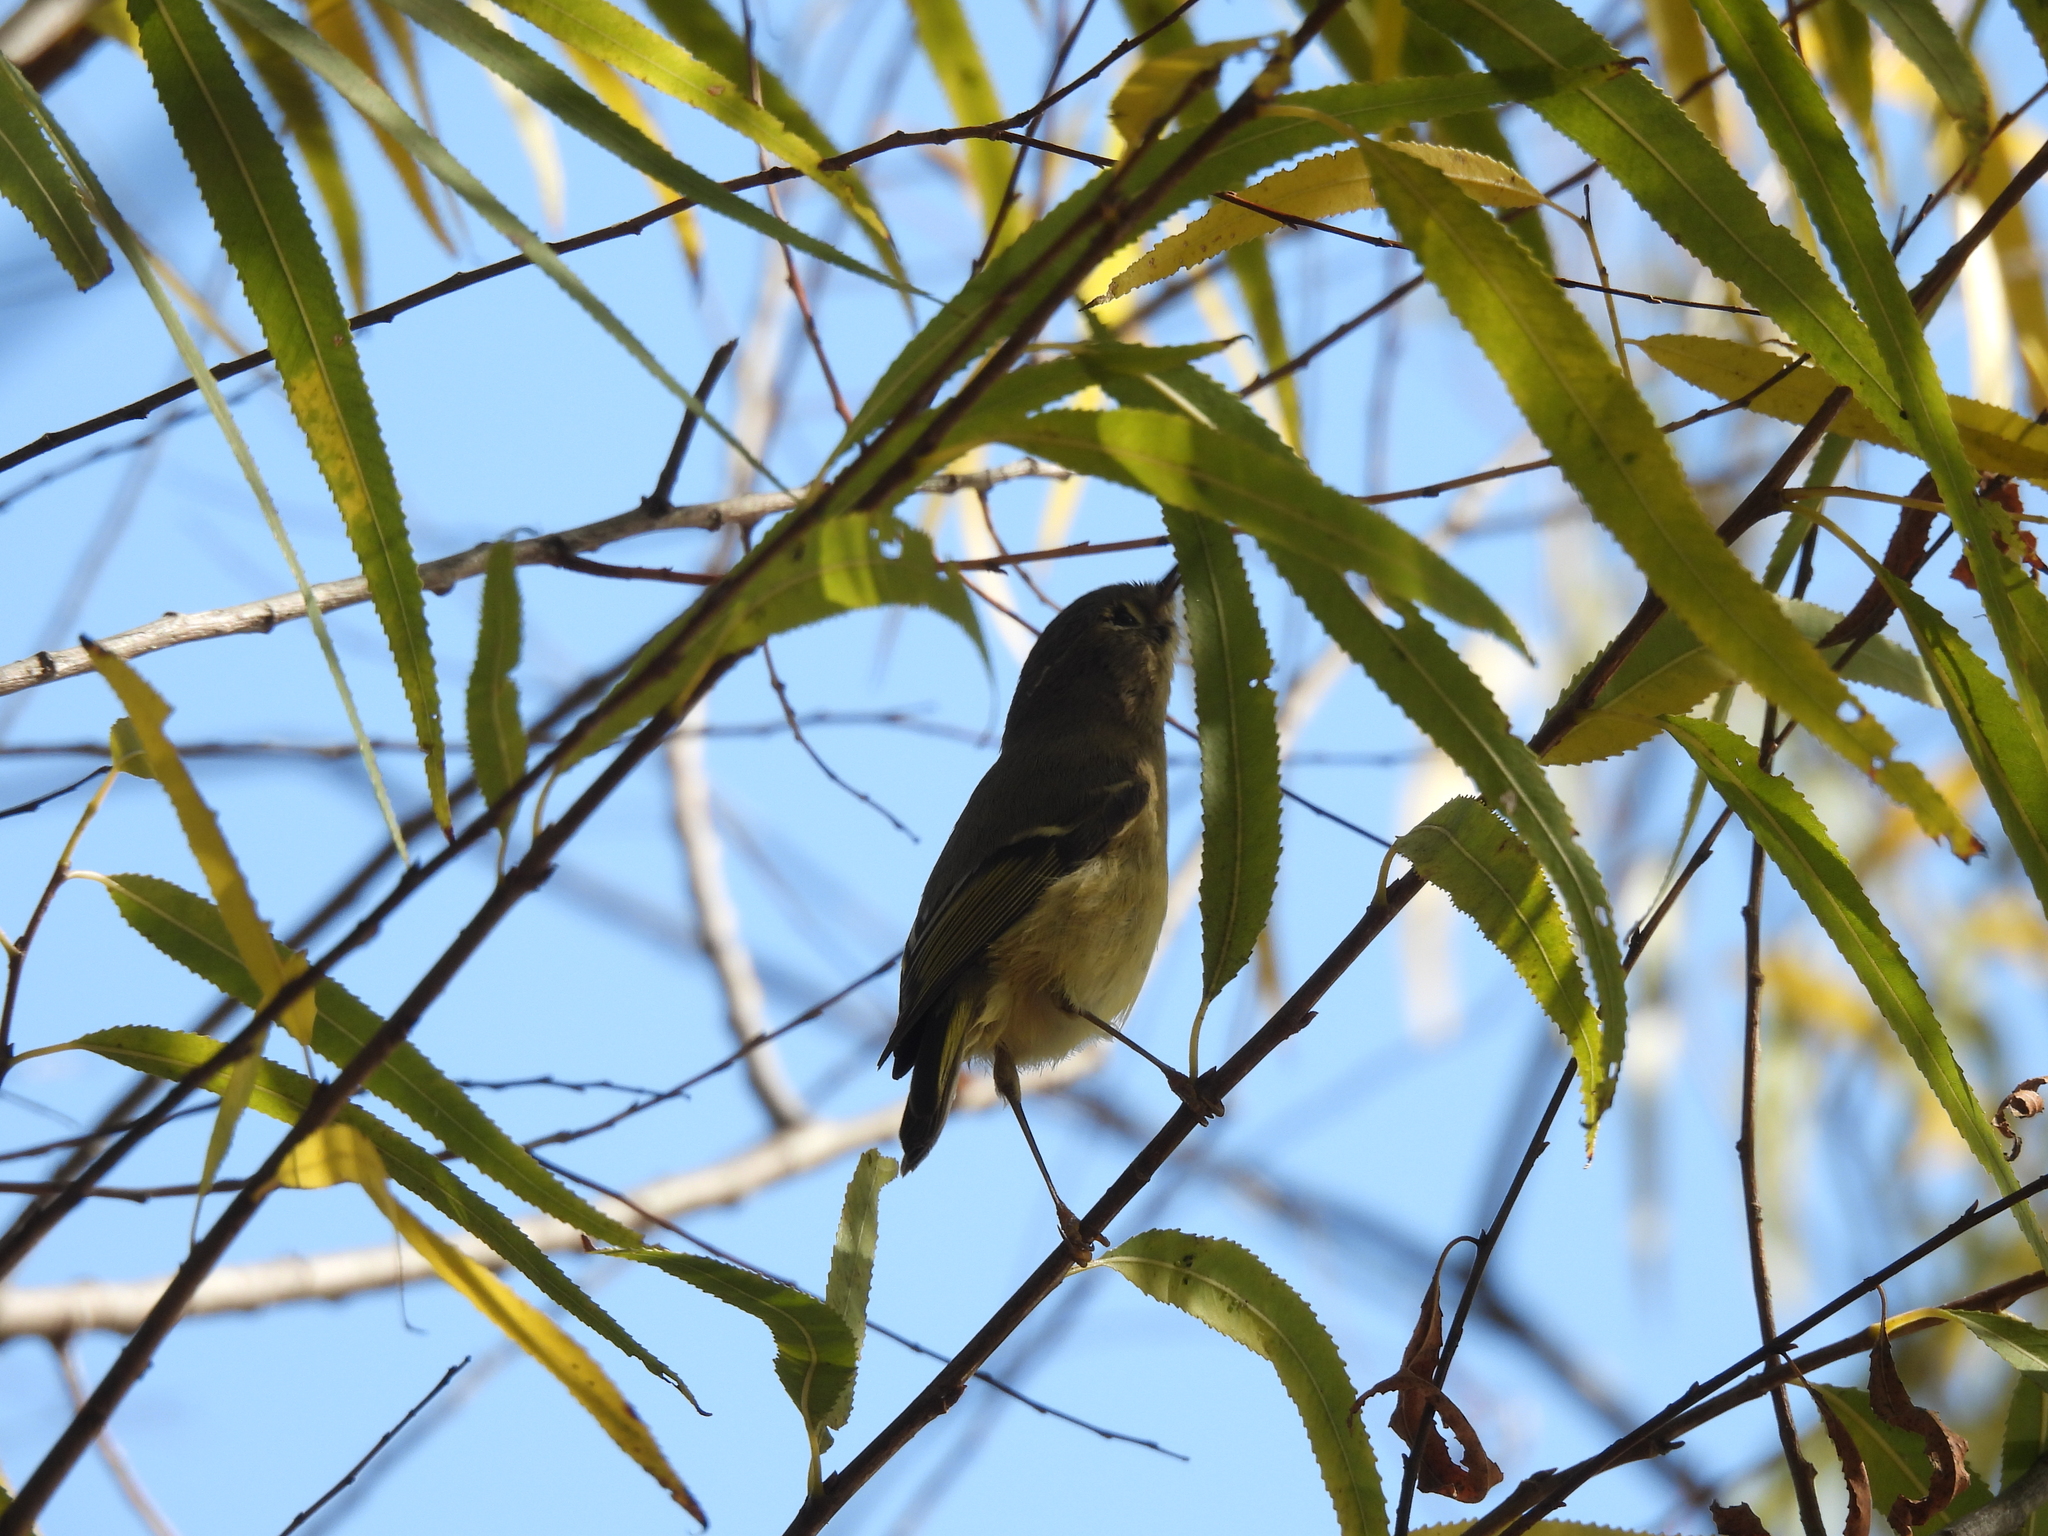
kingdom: Animalia
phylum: Chordata
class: Aves
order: Passeriformes
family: Regulidae
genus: Regulus
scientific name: Regulus calendula
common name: Ruby-crowned kinglet
